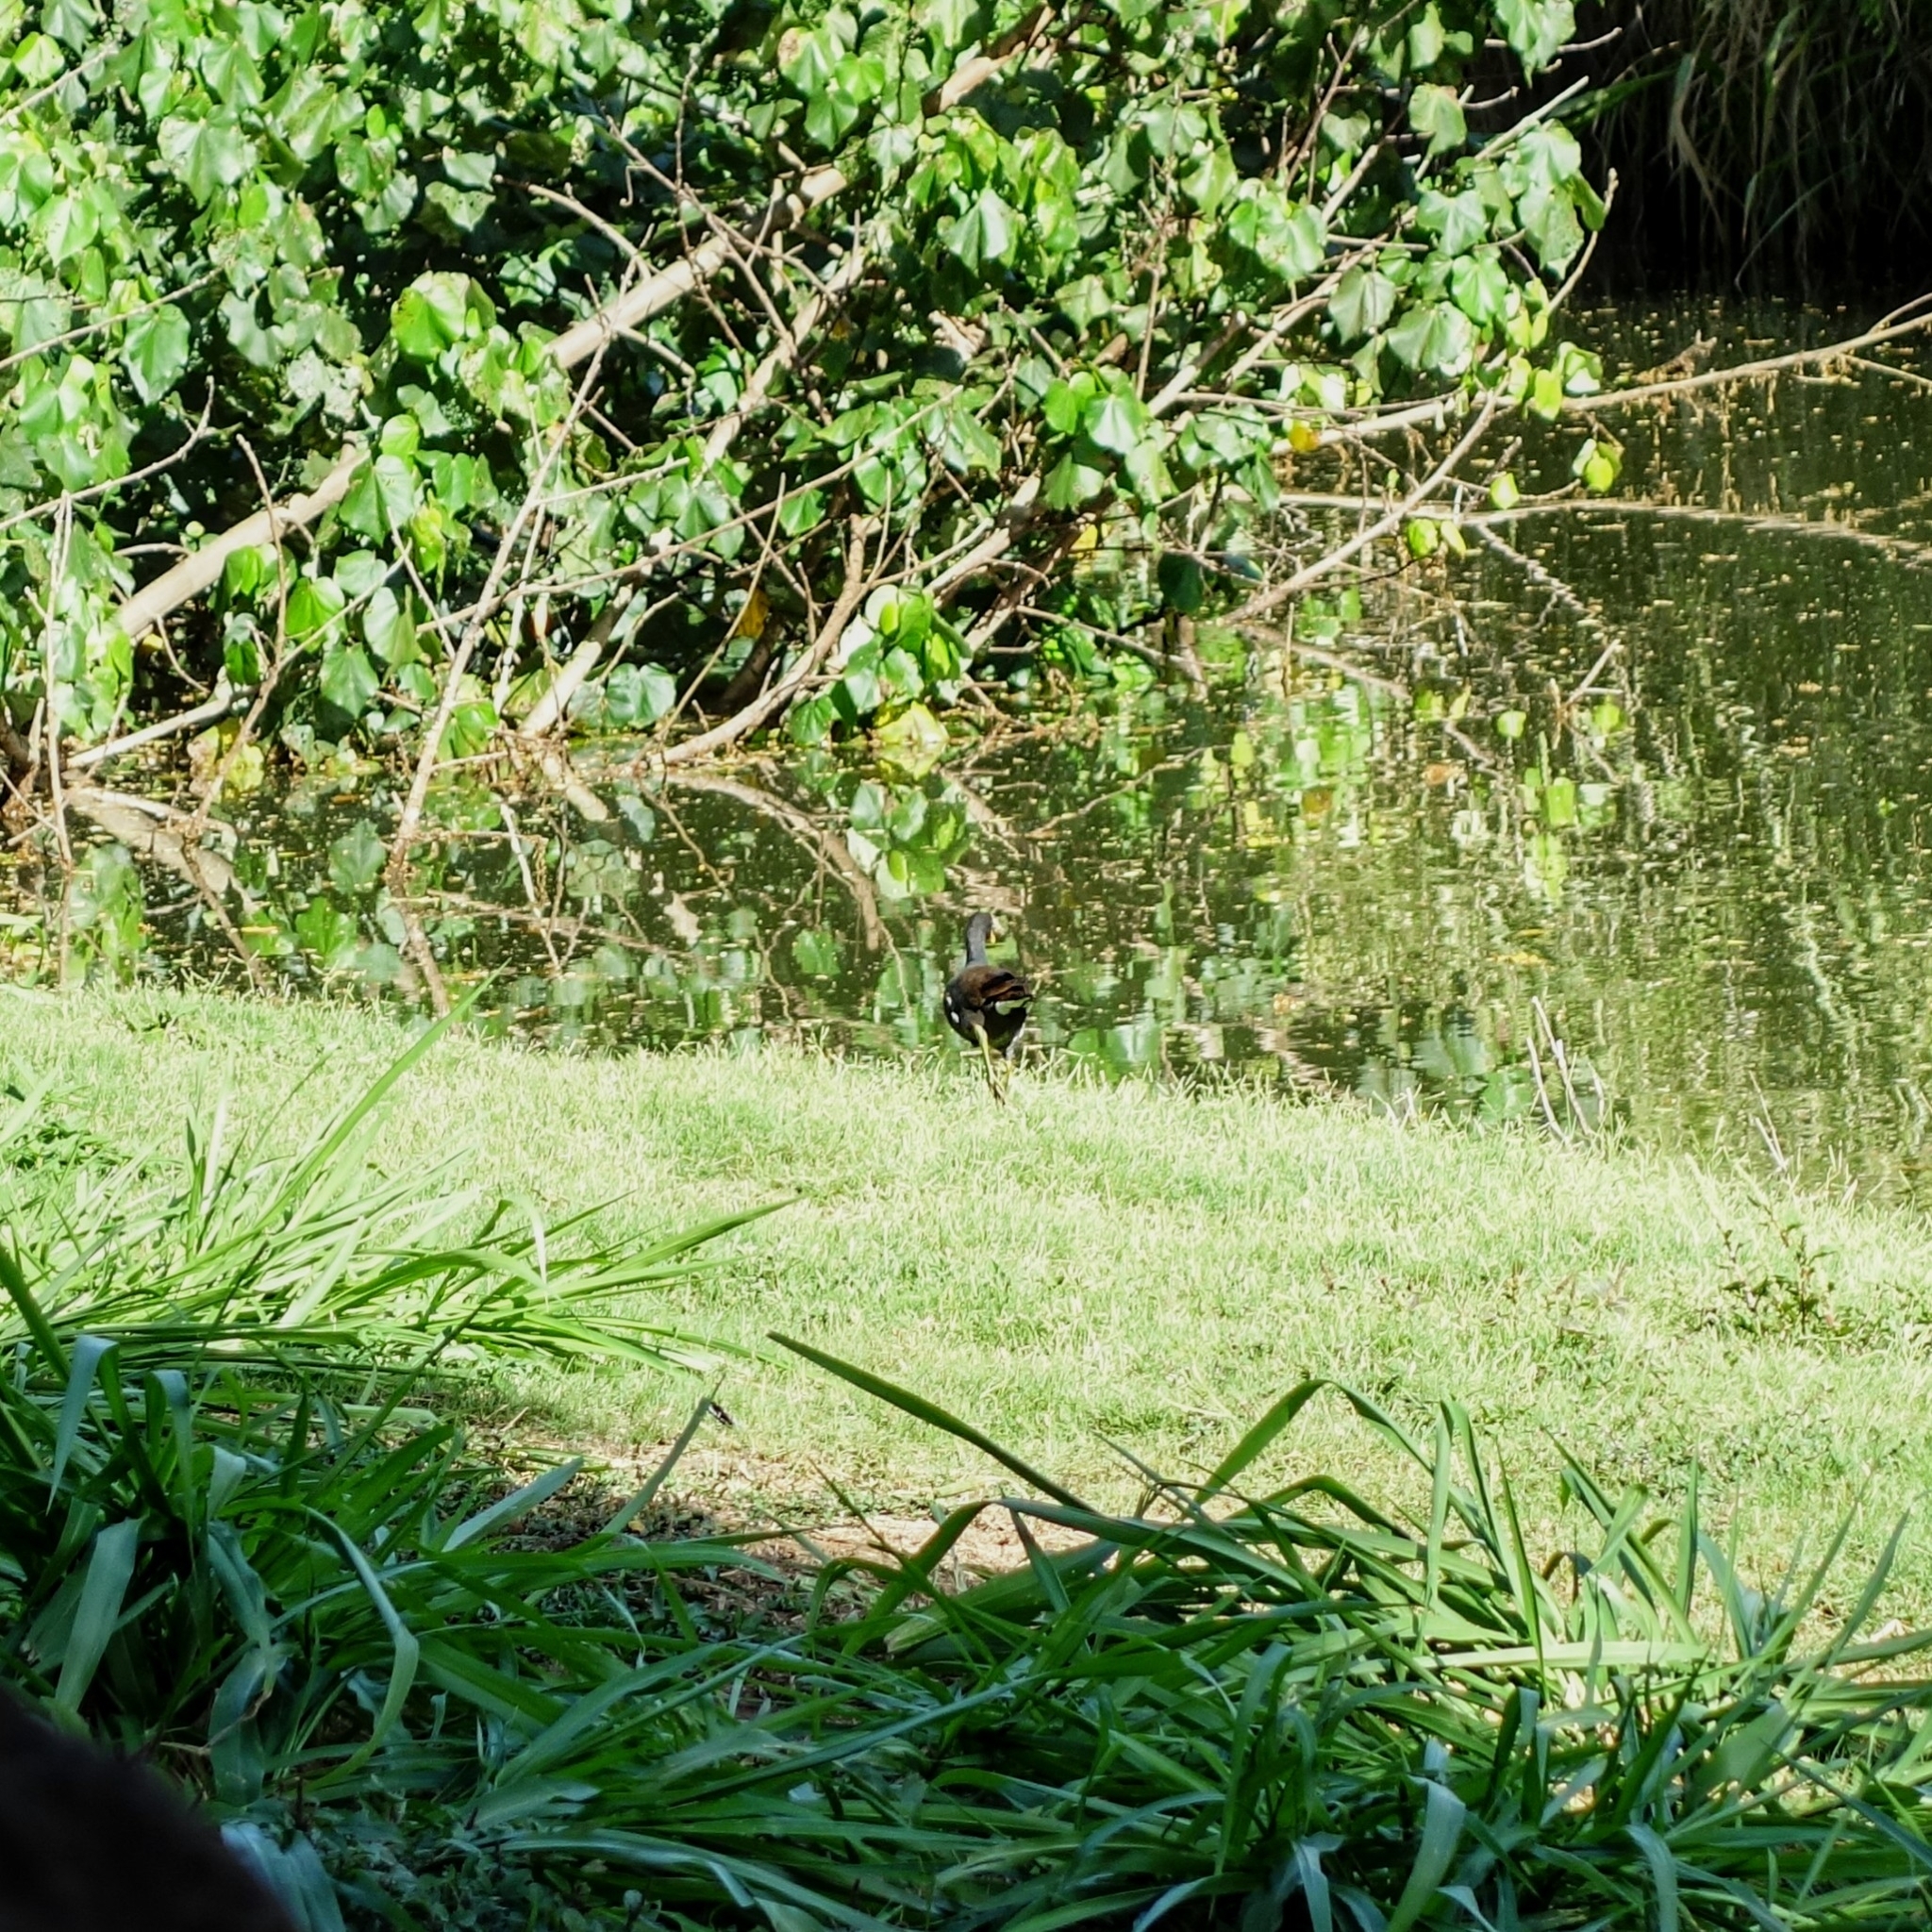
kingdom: Animalia
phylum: Chordata
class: Aves
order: Gruiformes
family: Rallidae
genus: Gallinula
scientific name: Gallinula chloropus
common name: Common moorhen
